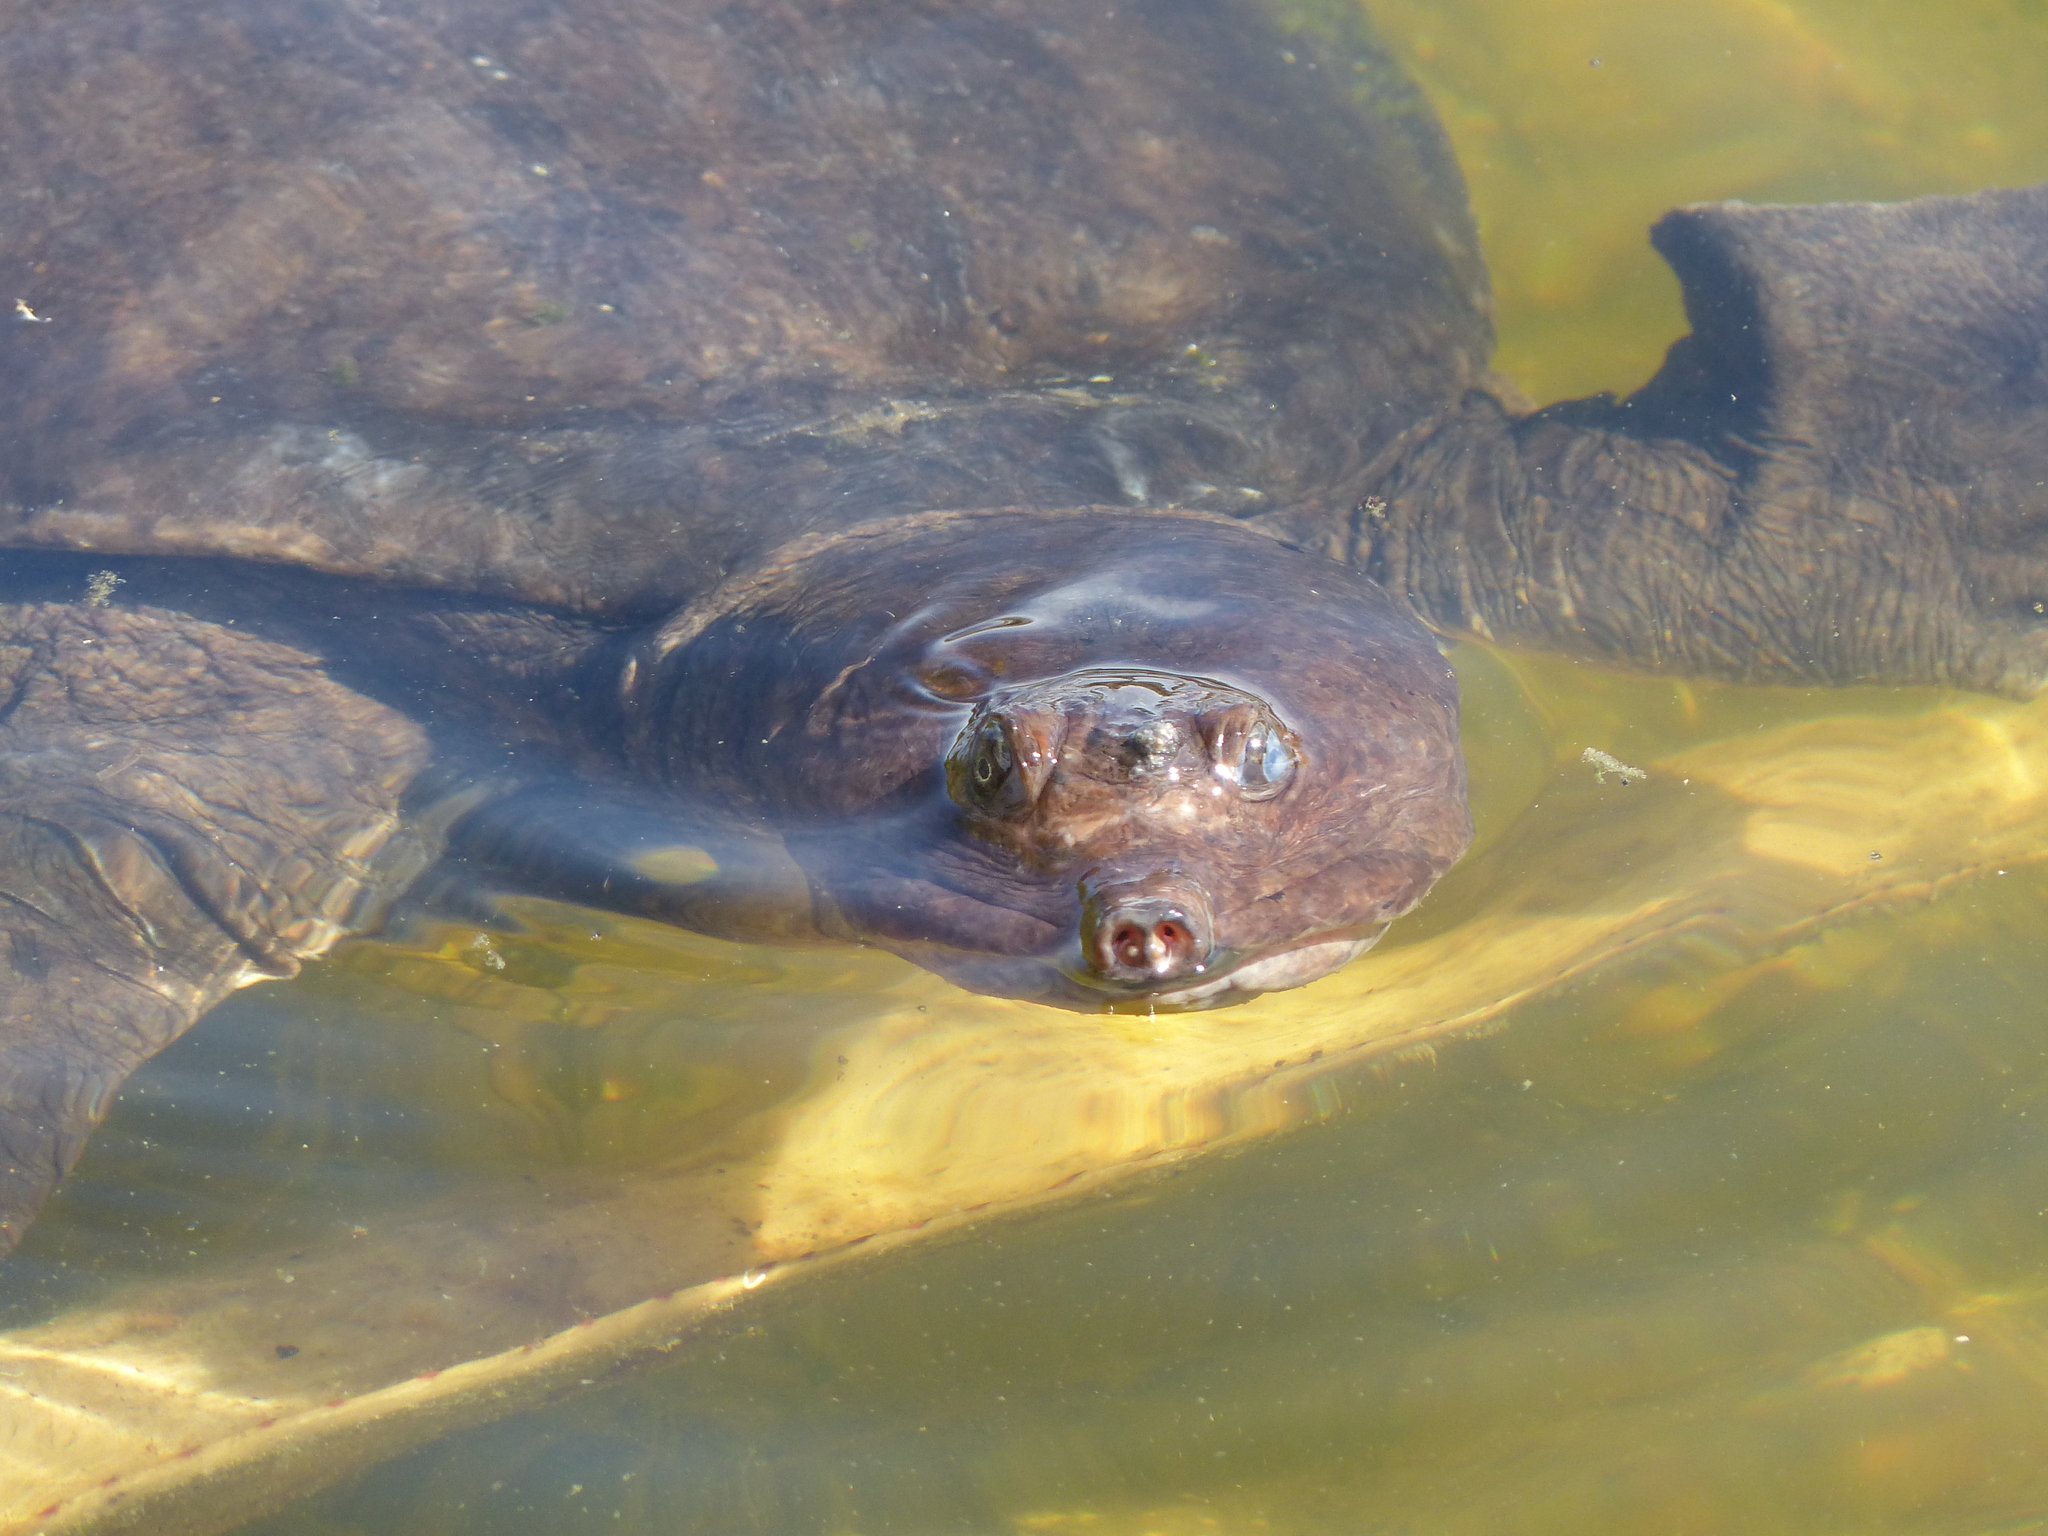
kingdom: Animalia
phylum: Chordata
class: Testudines
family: Trionychidae
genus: Apalone
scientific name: Apalone ferox
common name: Florida softshell turtle
